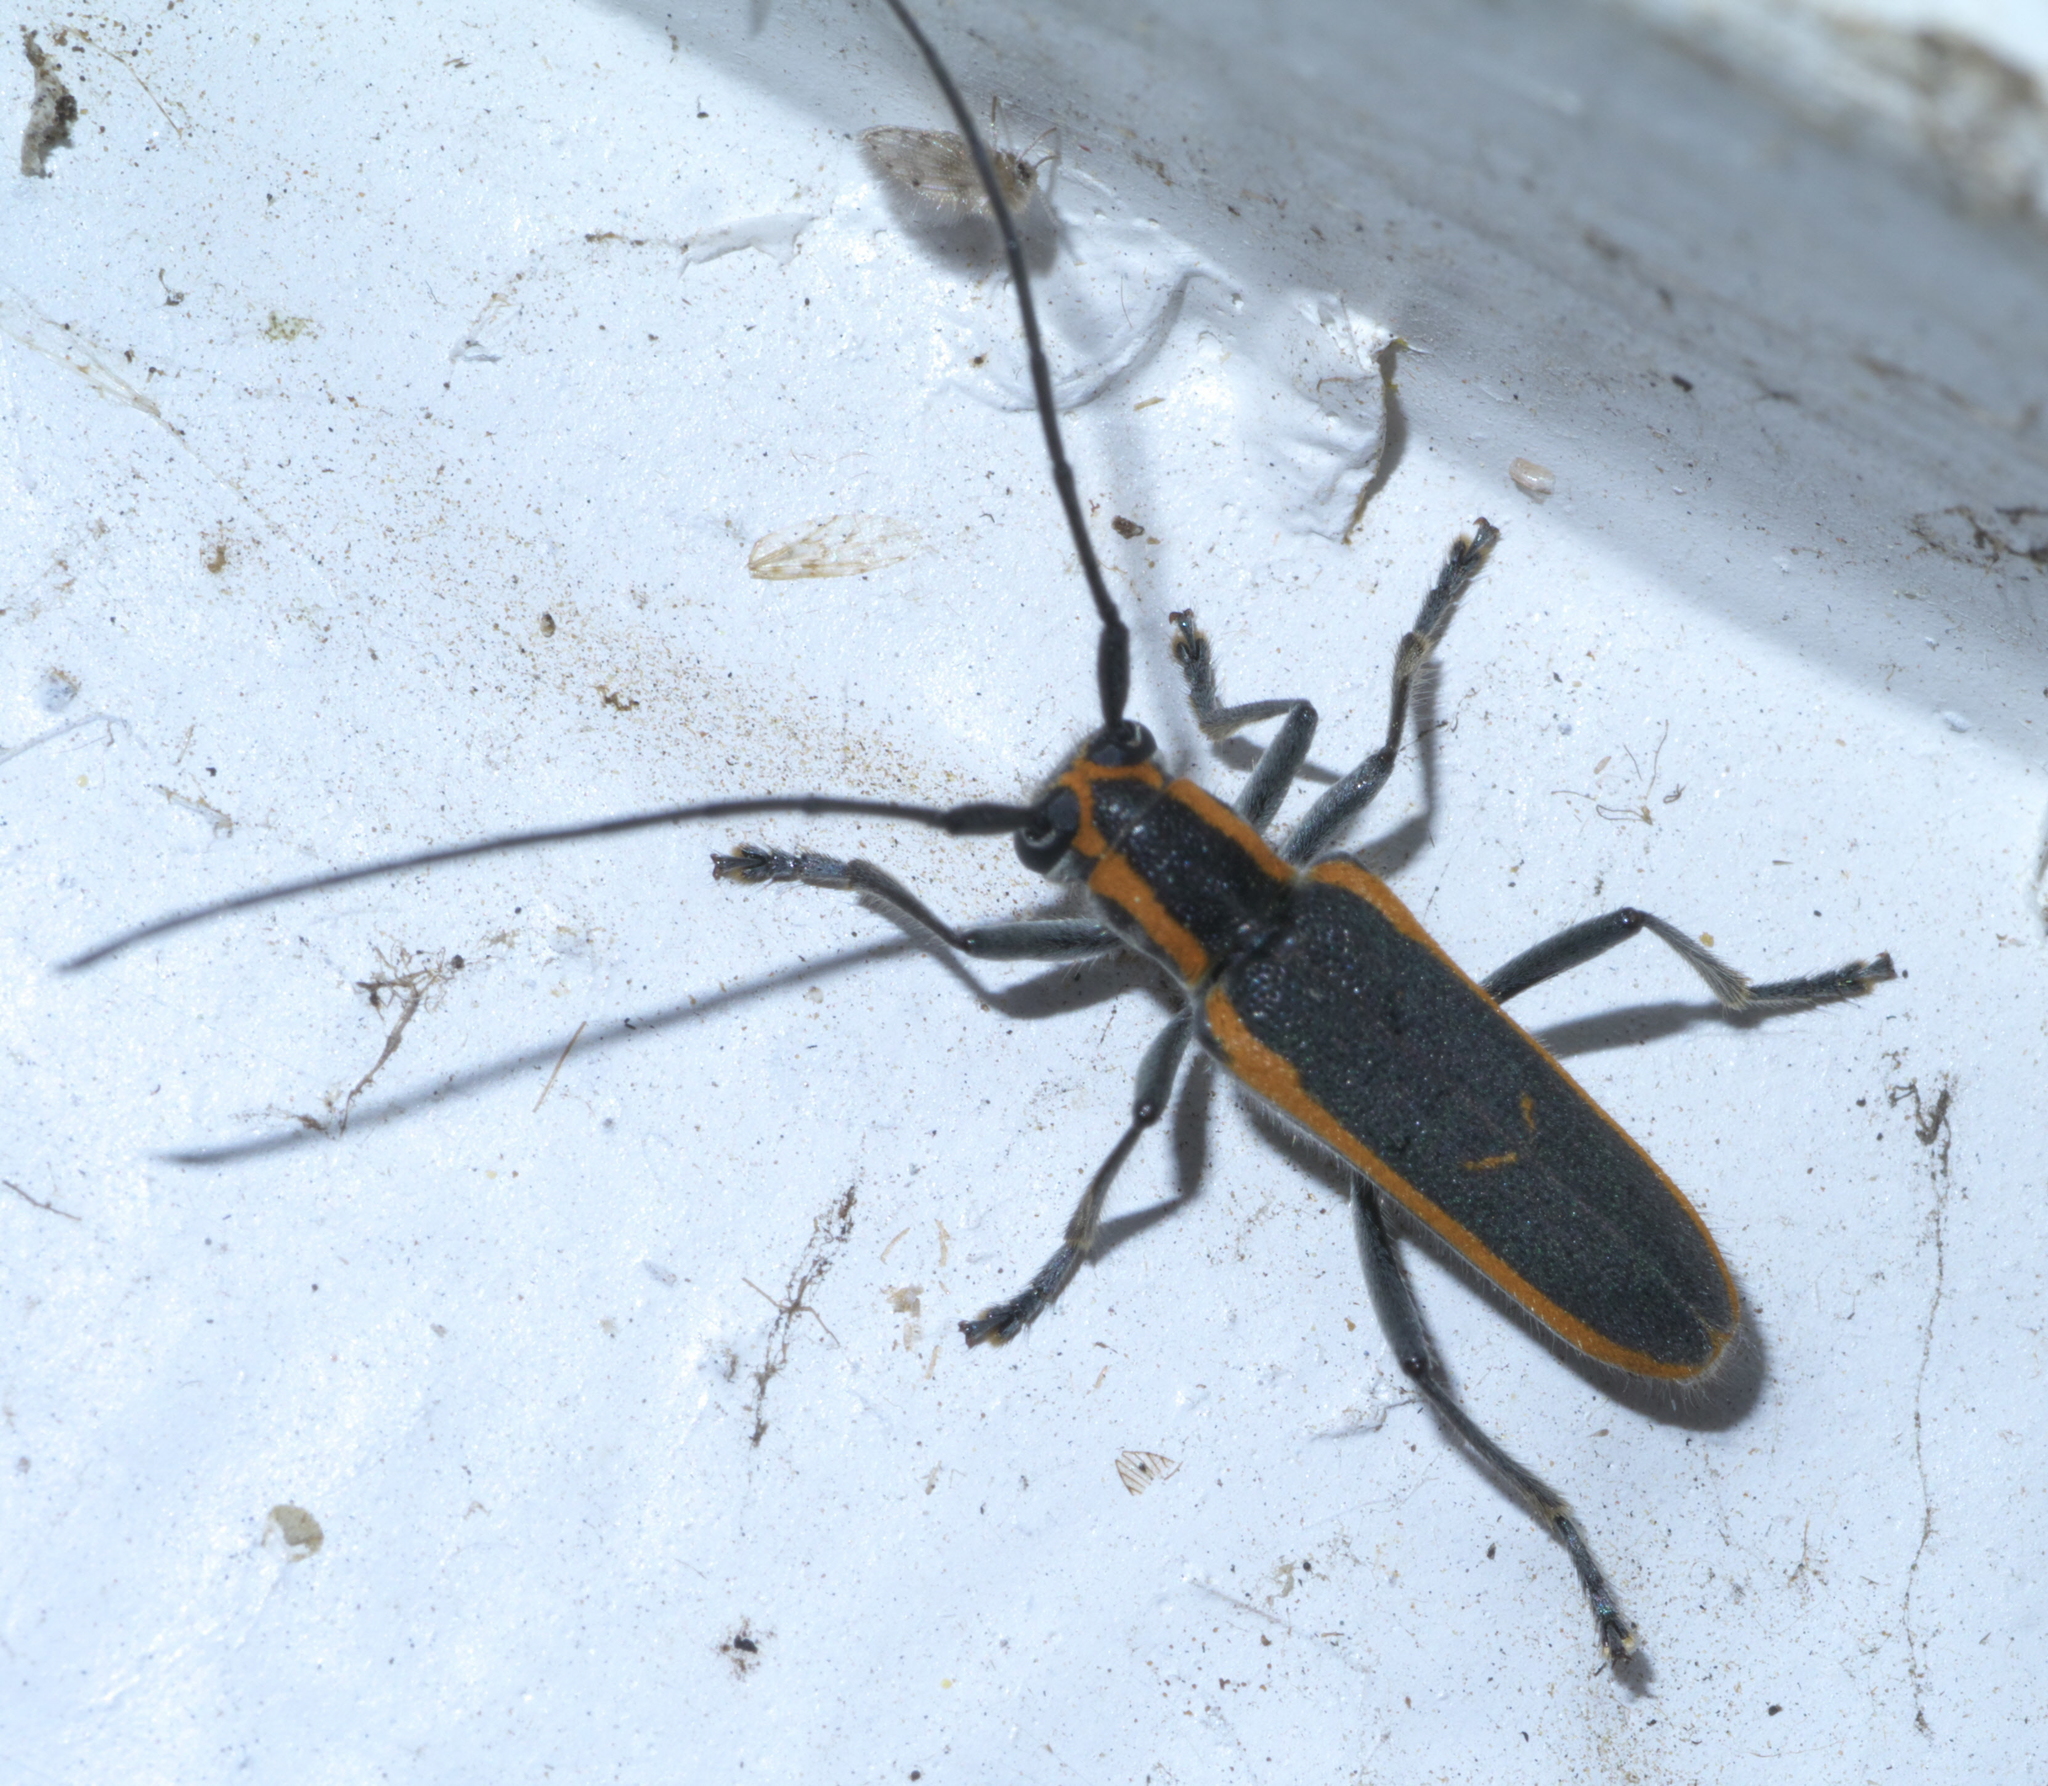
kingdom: Animalia
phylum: Arthropoda
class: Insecta
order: Coleoptera
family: Cerambycidae
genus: Saperda
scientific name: Saperda lateralis
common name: Red-edged saperda
